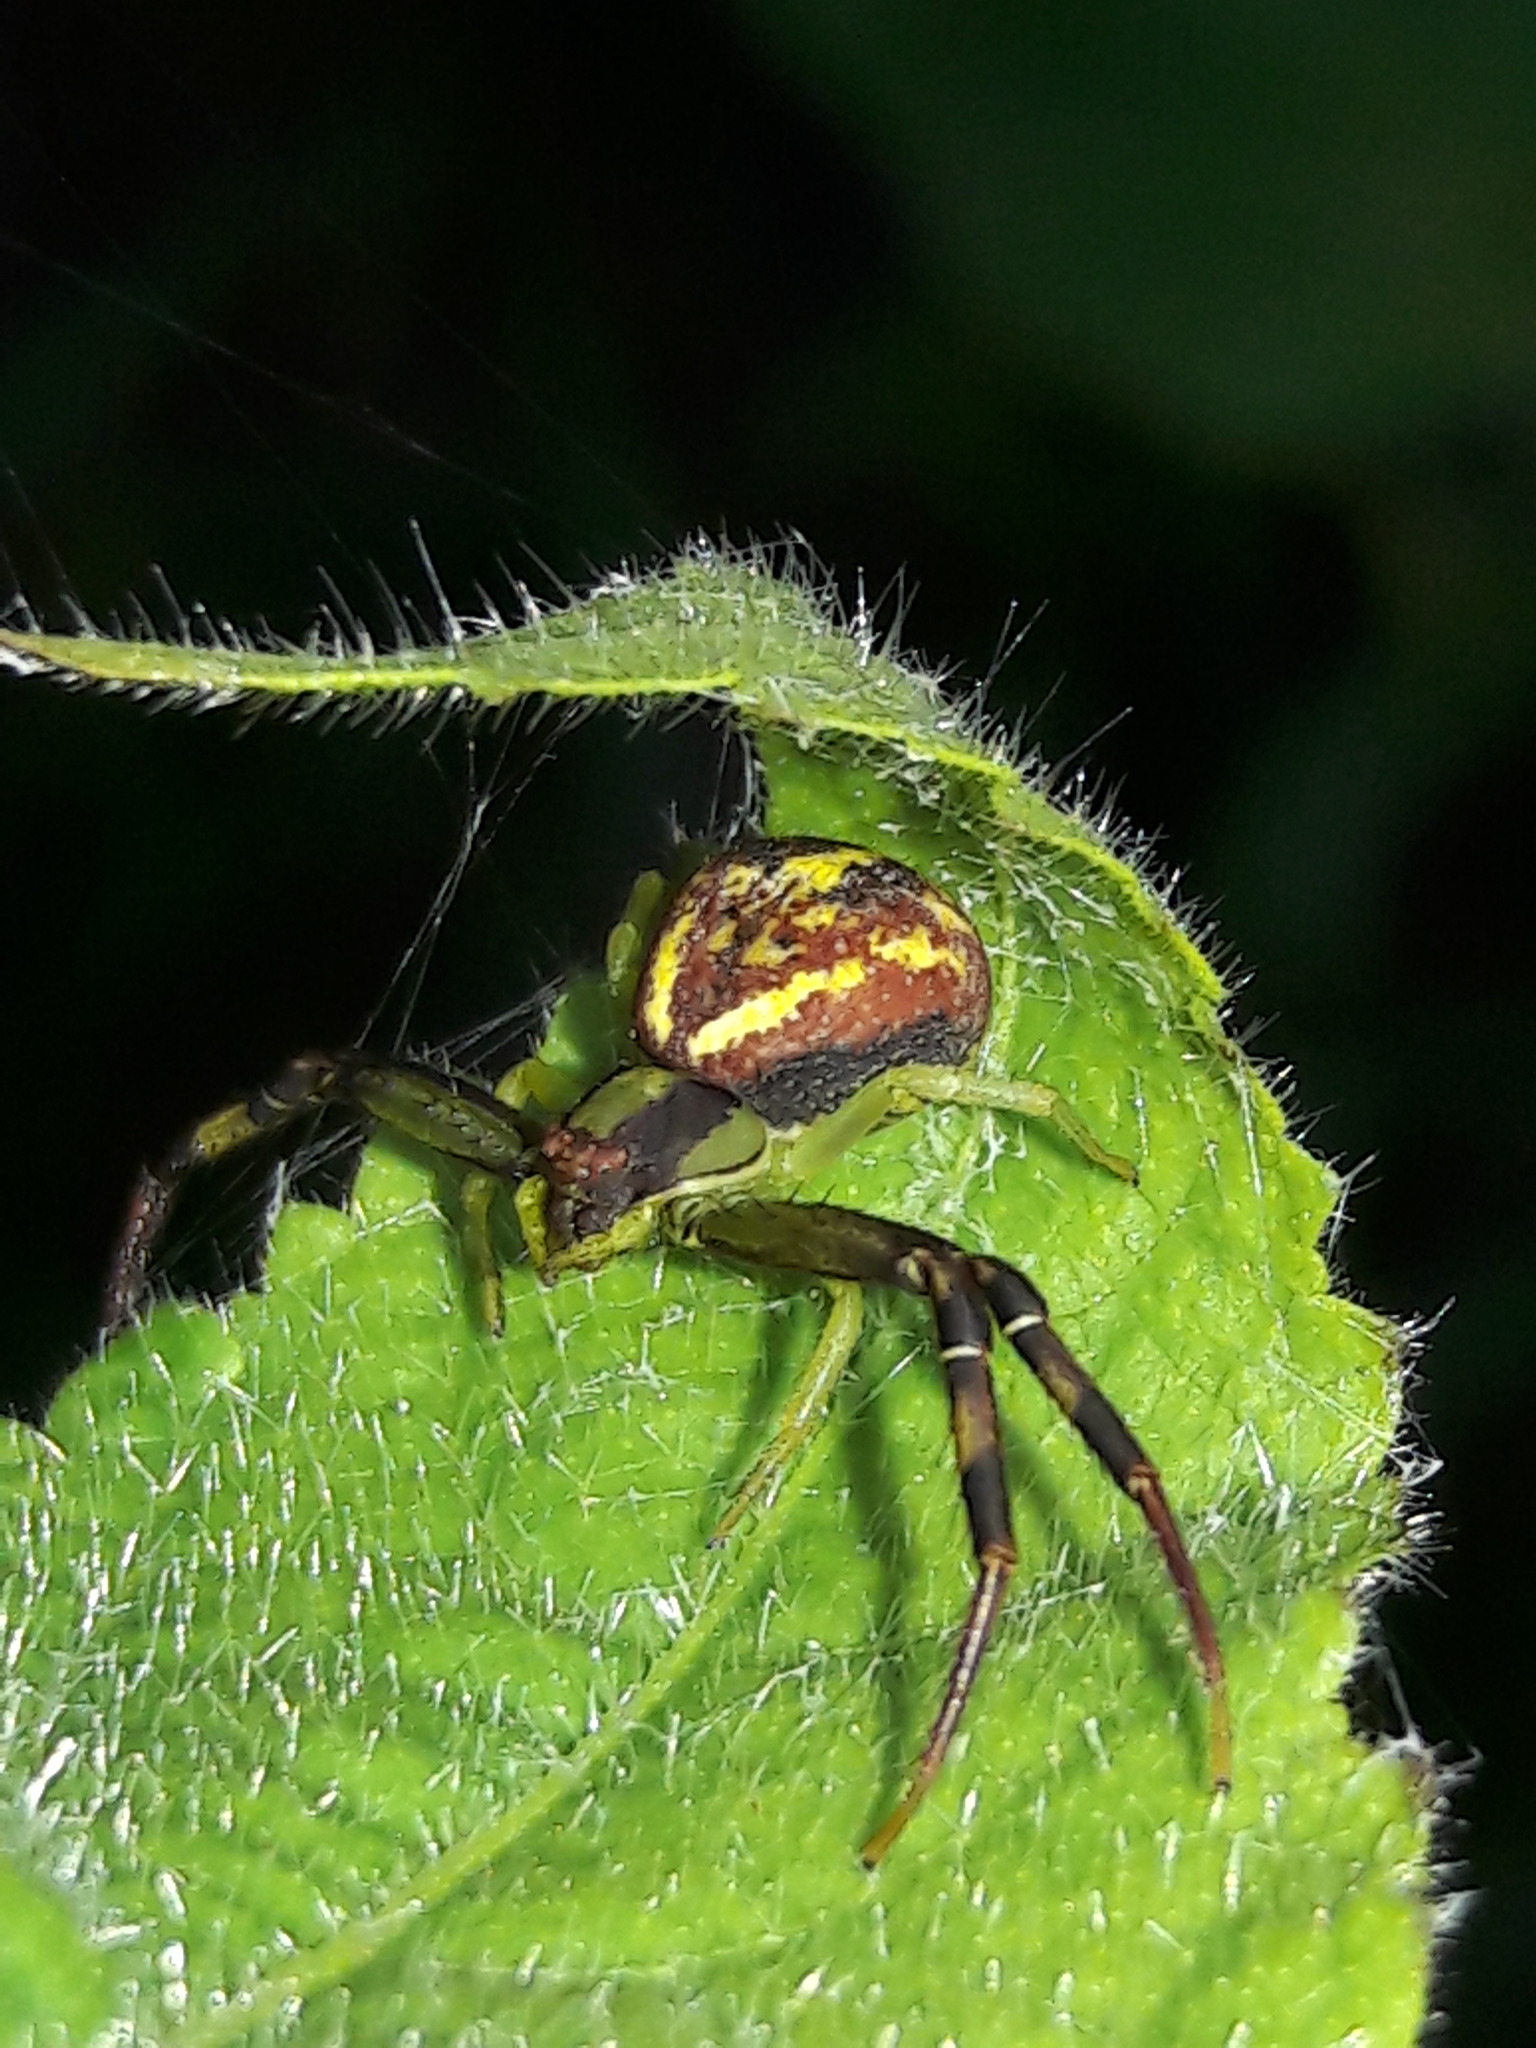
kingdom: Animalia
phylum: Arthropoda
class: Arachnida
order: Araneae
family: Thomisidae
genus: Misumenops
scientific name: Misumenops maculissparsus
